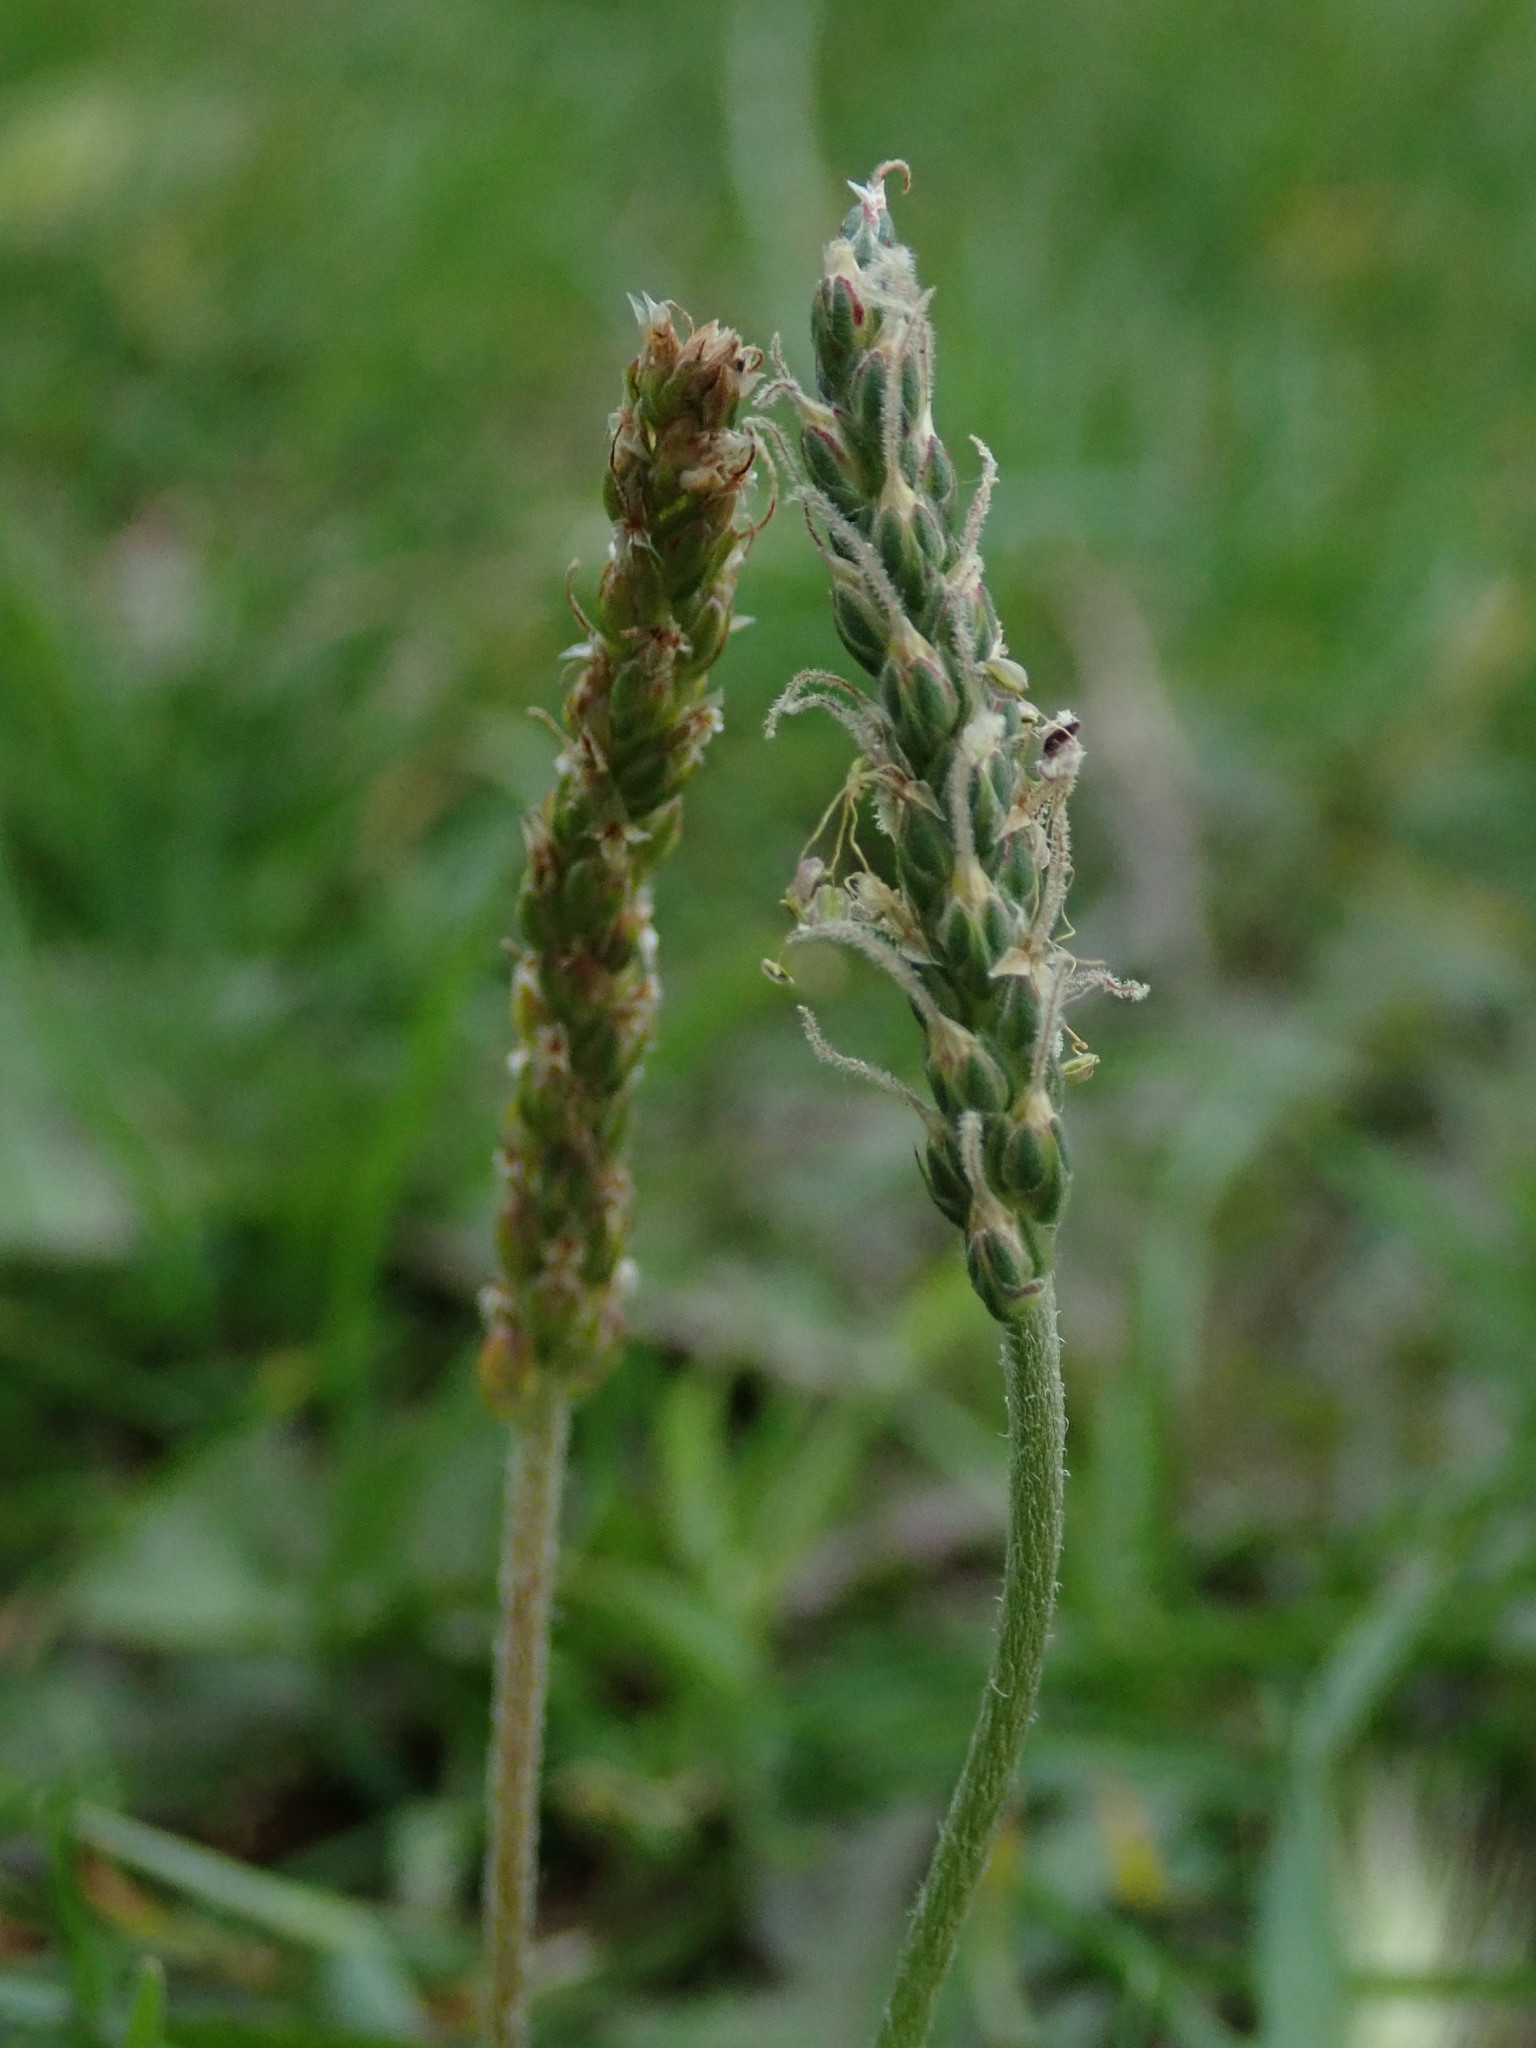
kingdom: Plantae
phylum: Tracheophyta
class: Magnoliopsida
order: Lamiales
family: Plantaginaceae
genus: Plantago
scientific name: Plantago coronopus
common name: Buck's-horn plantain
